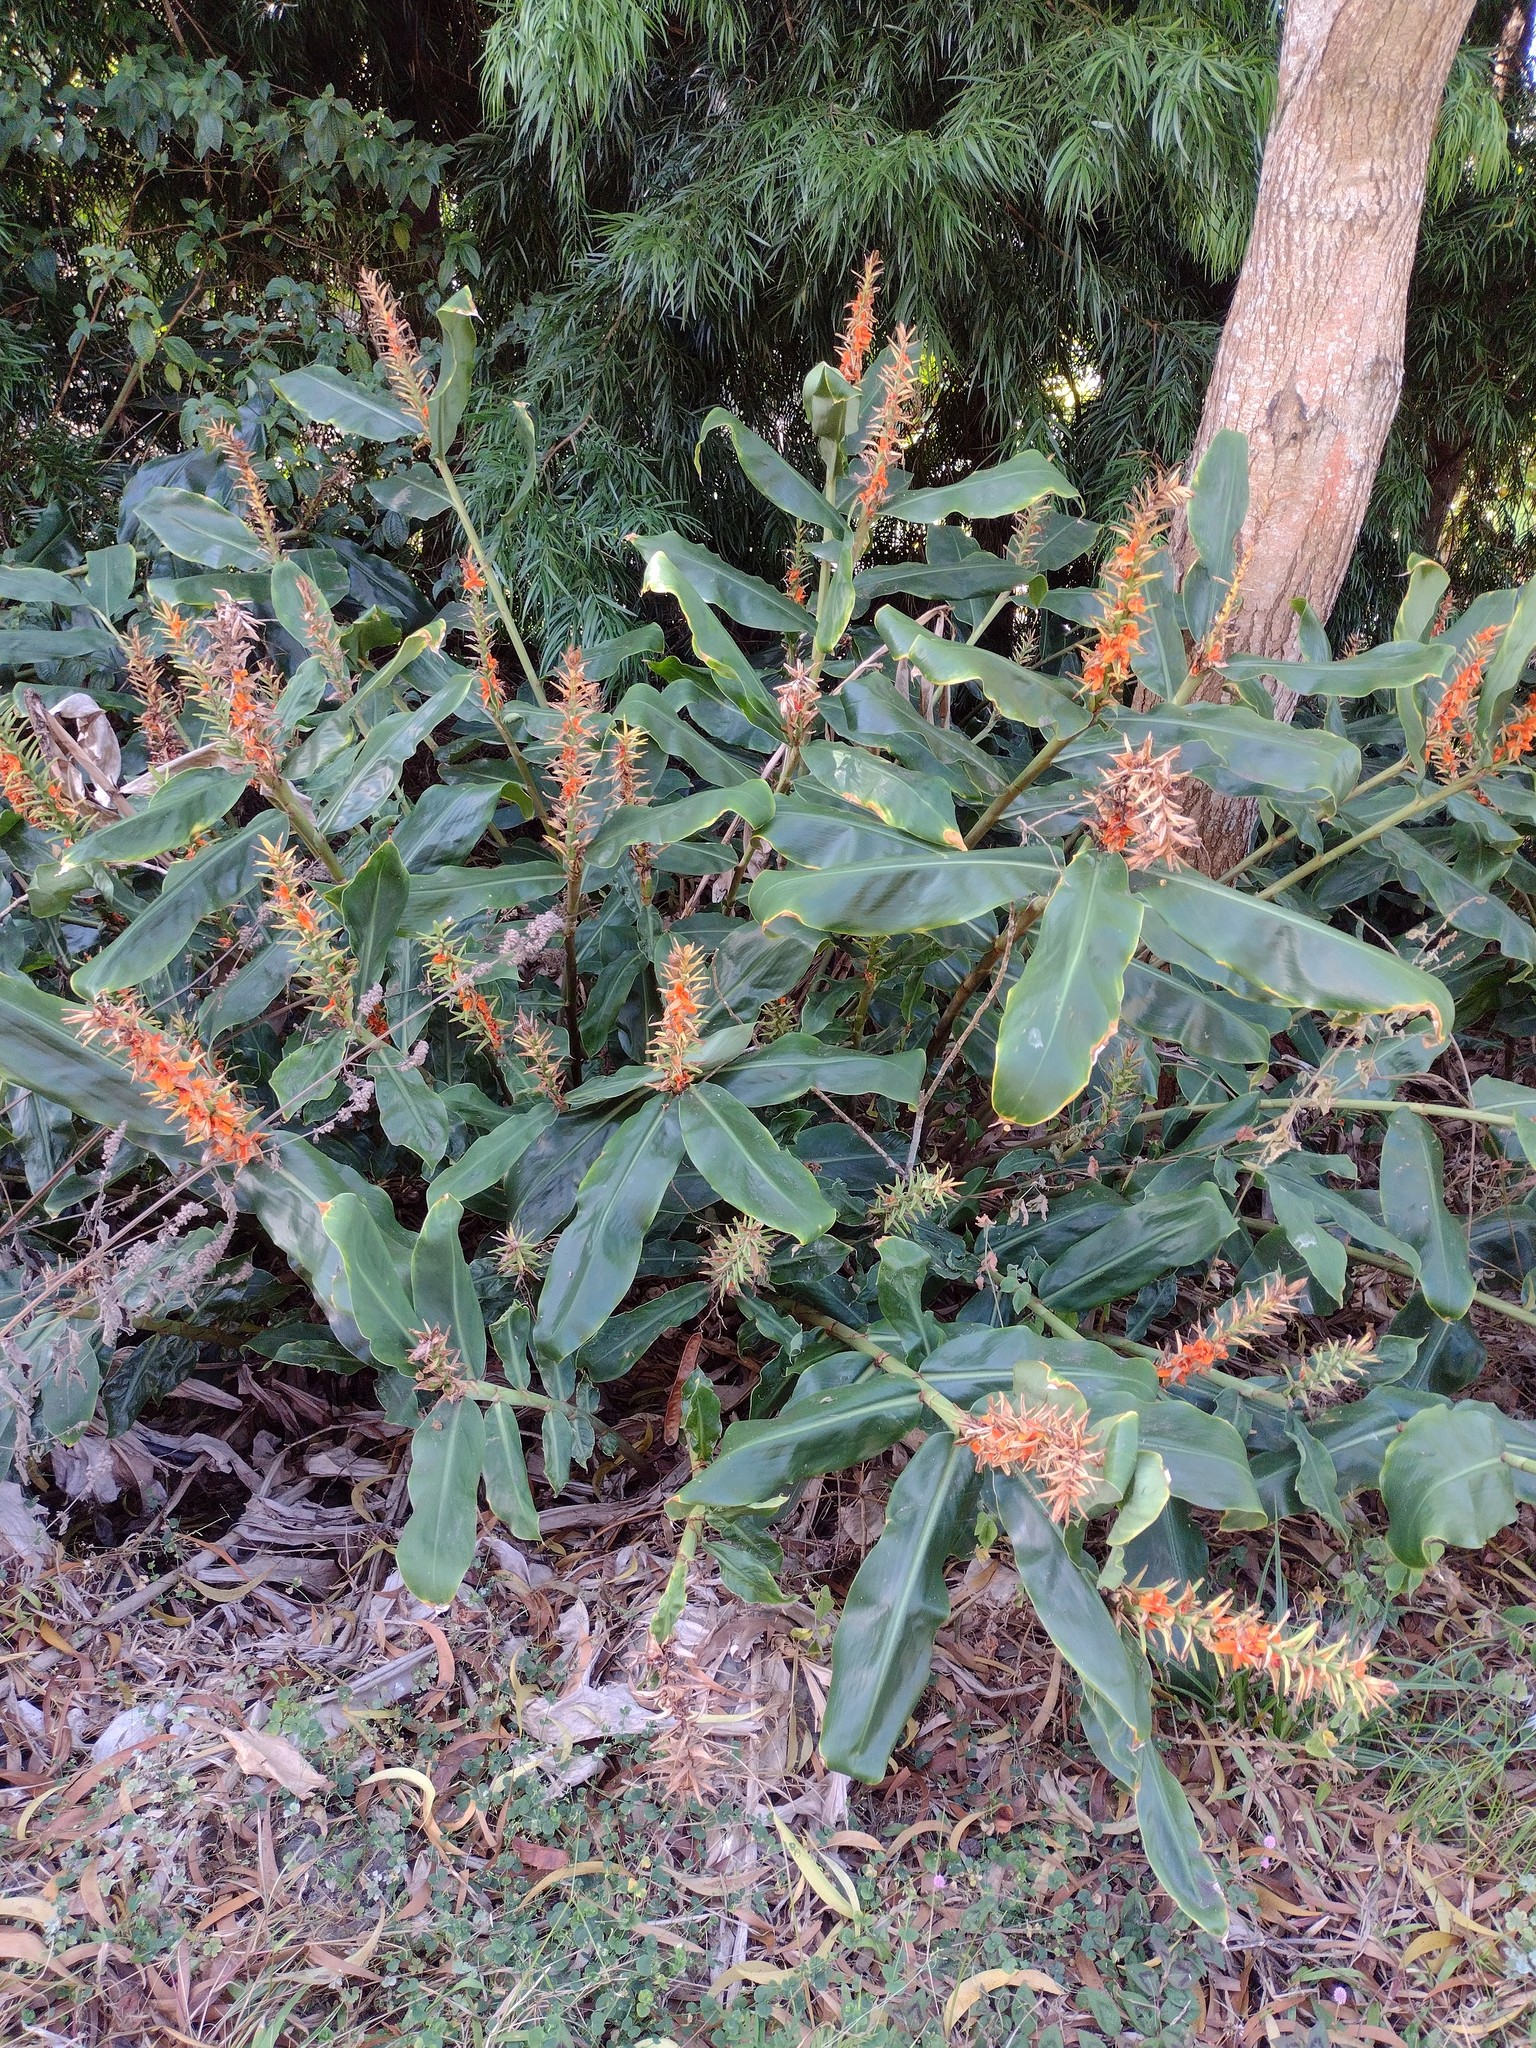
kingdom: Plantae
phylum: Tracheophyta
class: Liliopsida
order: Zingiberales
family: Zingiberaceae
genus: Hedychium
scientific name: Hedychium gardnerianum
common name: Himalayan ginger
